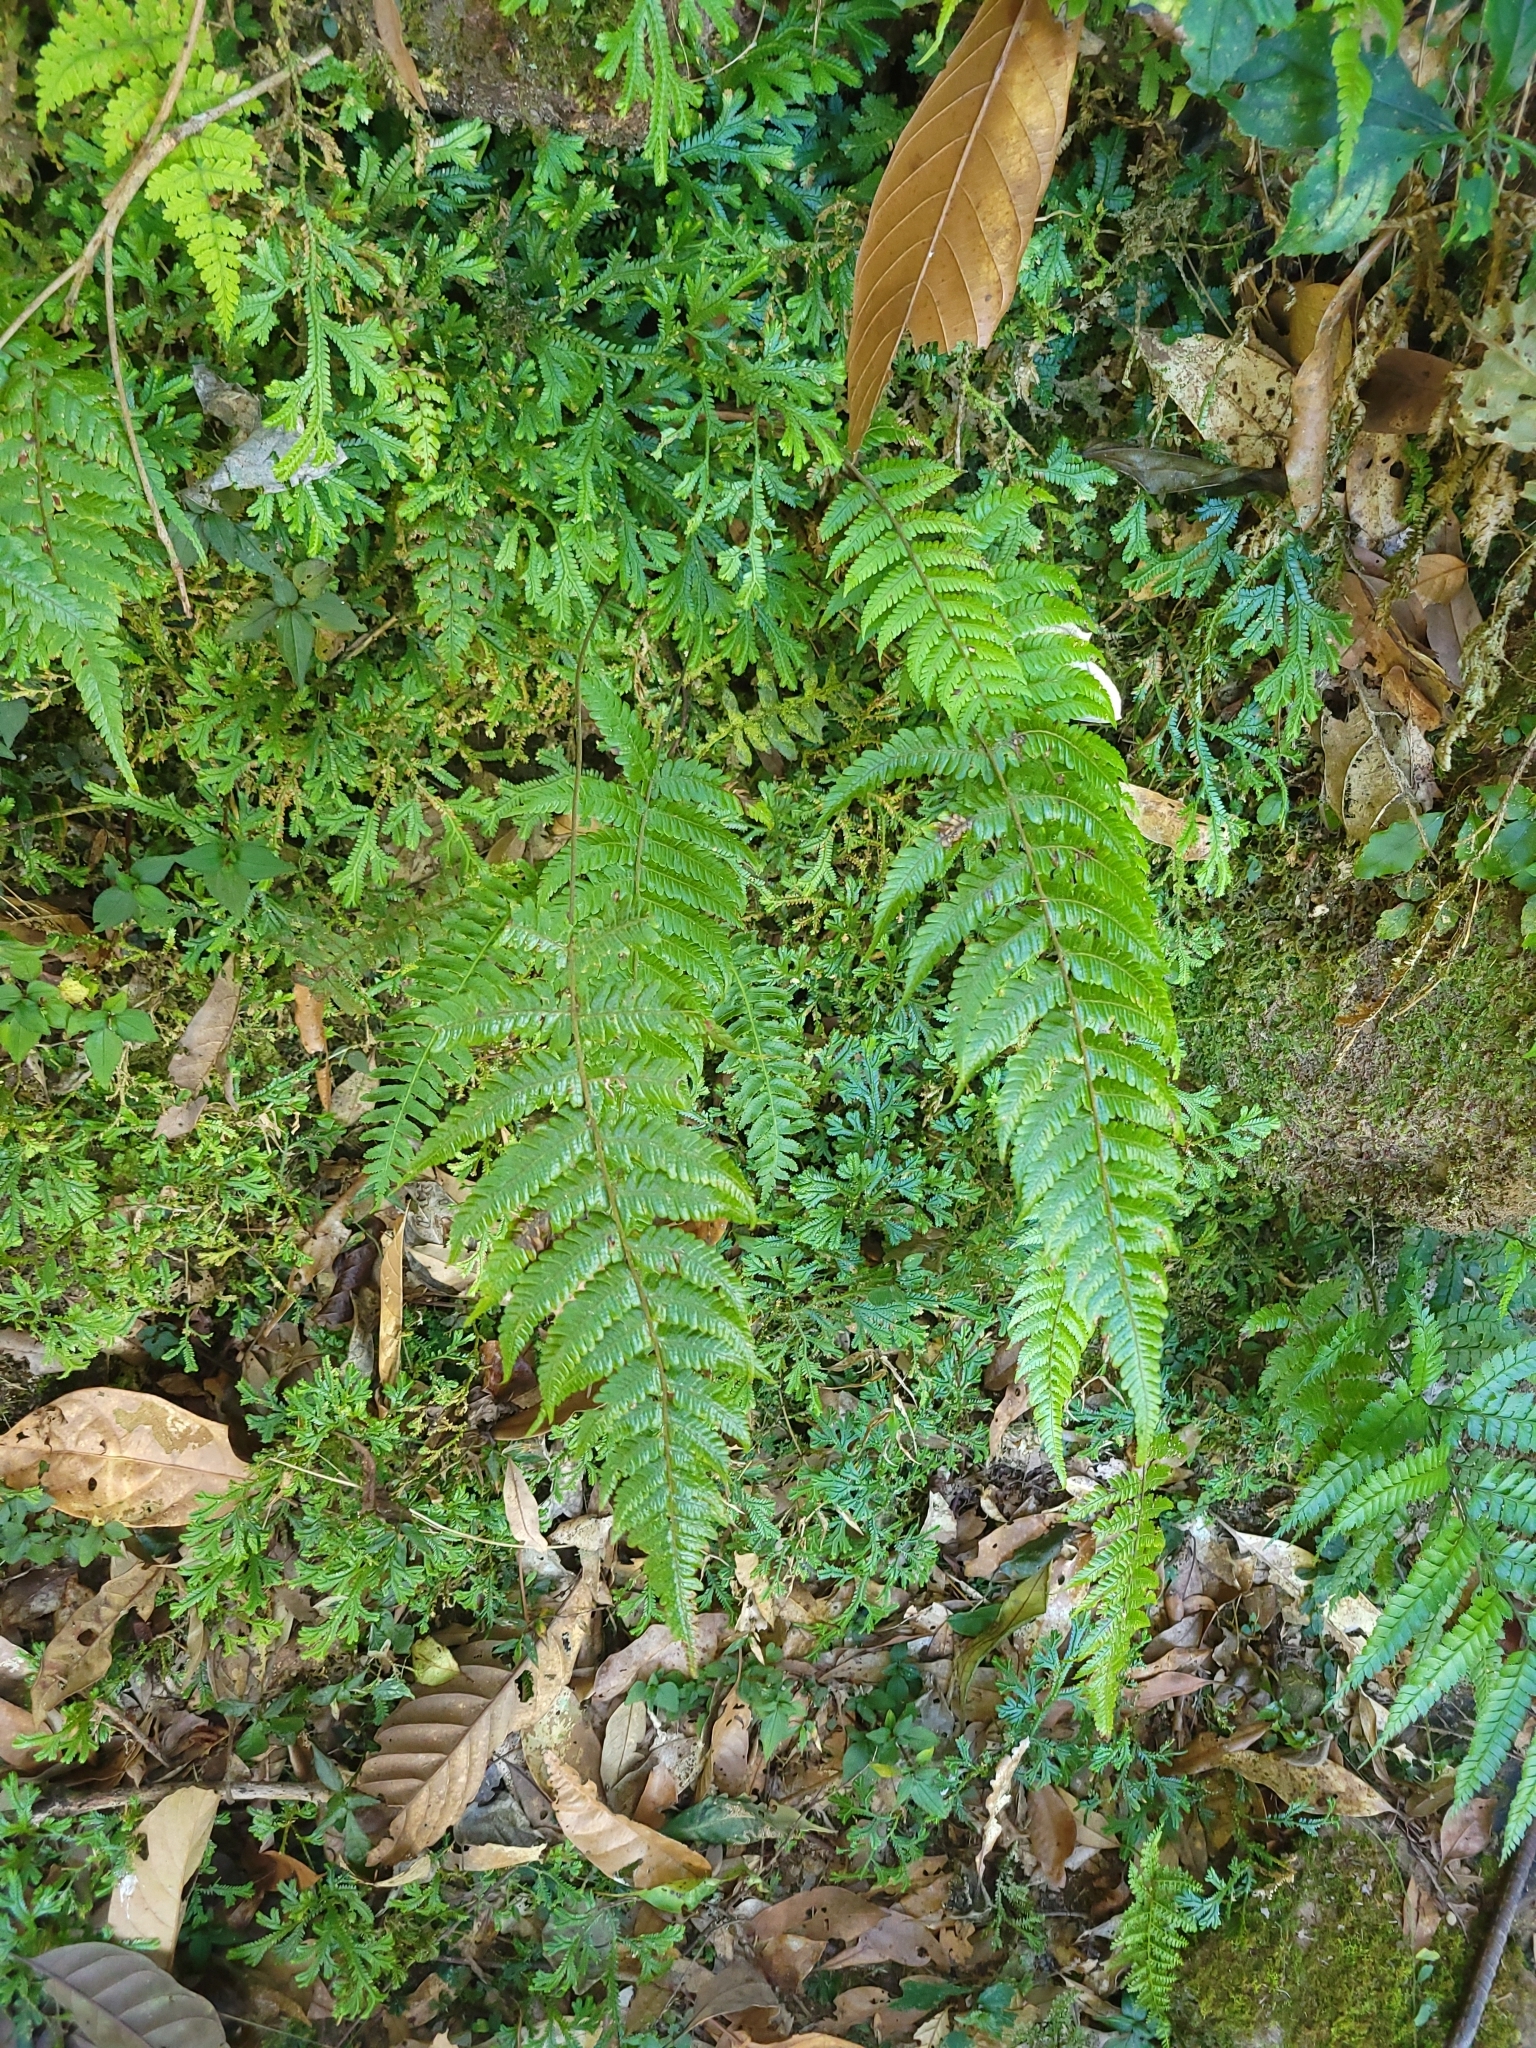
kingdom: Plantae
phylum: Tracheophyta
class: Polypodiopsida
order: Polypodiales
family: Athyriaceae
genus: Athyrium
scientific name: Athyrium arisanense
